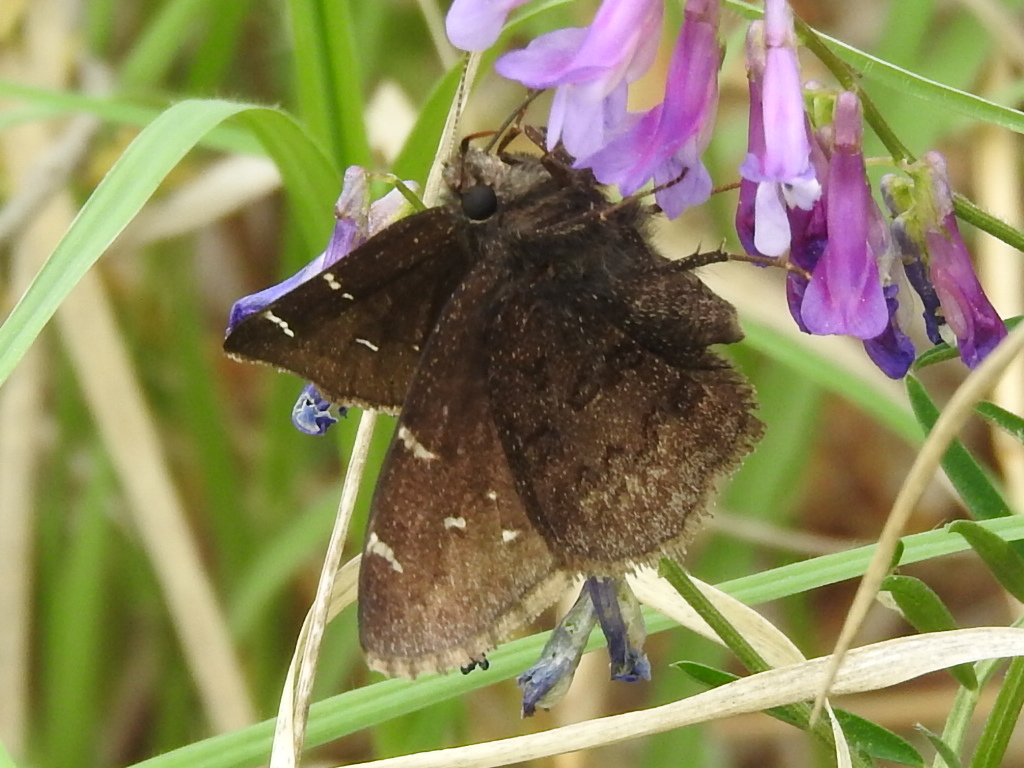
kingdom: Animalia
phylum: Arthropoda
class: Insecta
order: Lepidoptera
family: Hesperiidae
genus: Thorybes
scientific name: Thorybes pylades
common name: Northern cloudywing
